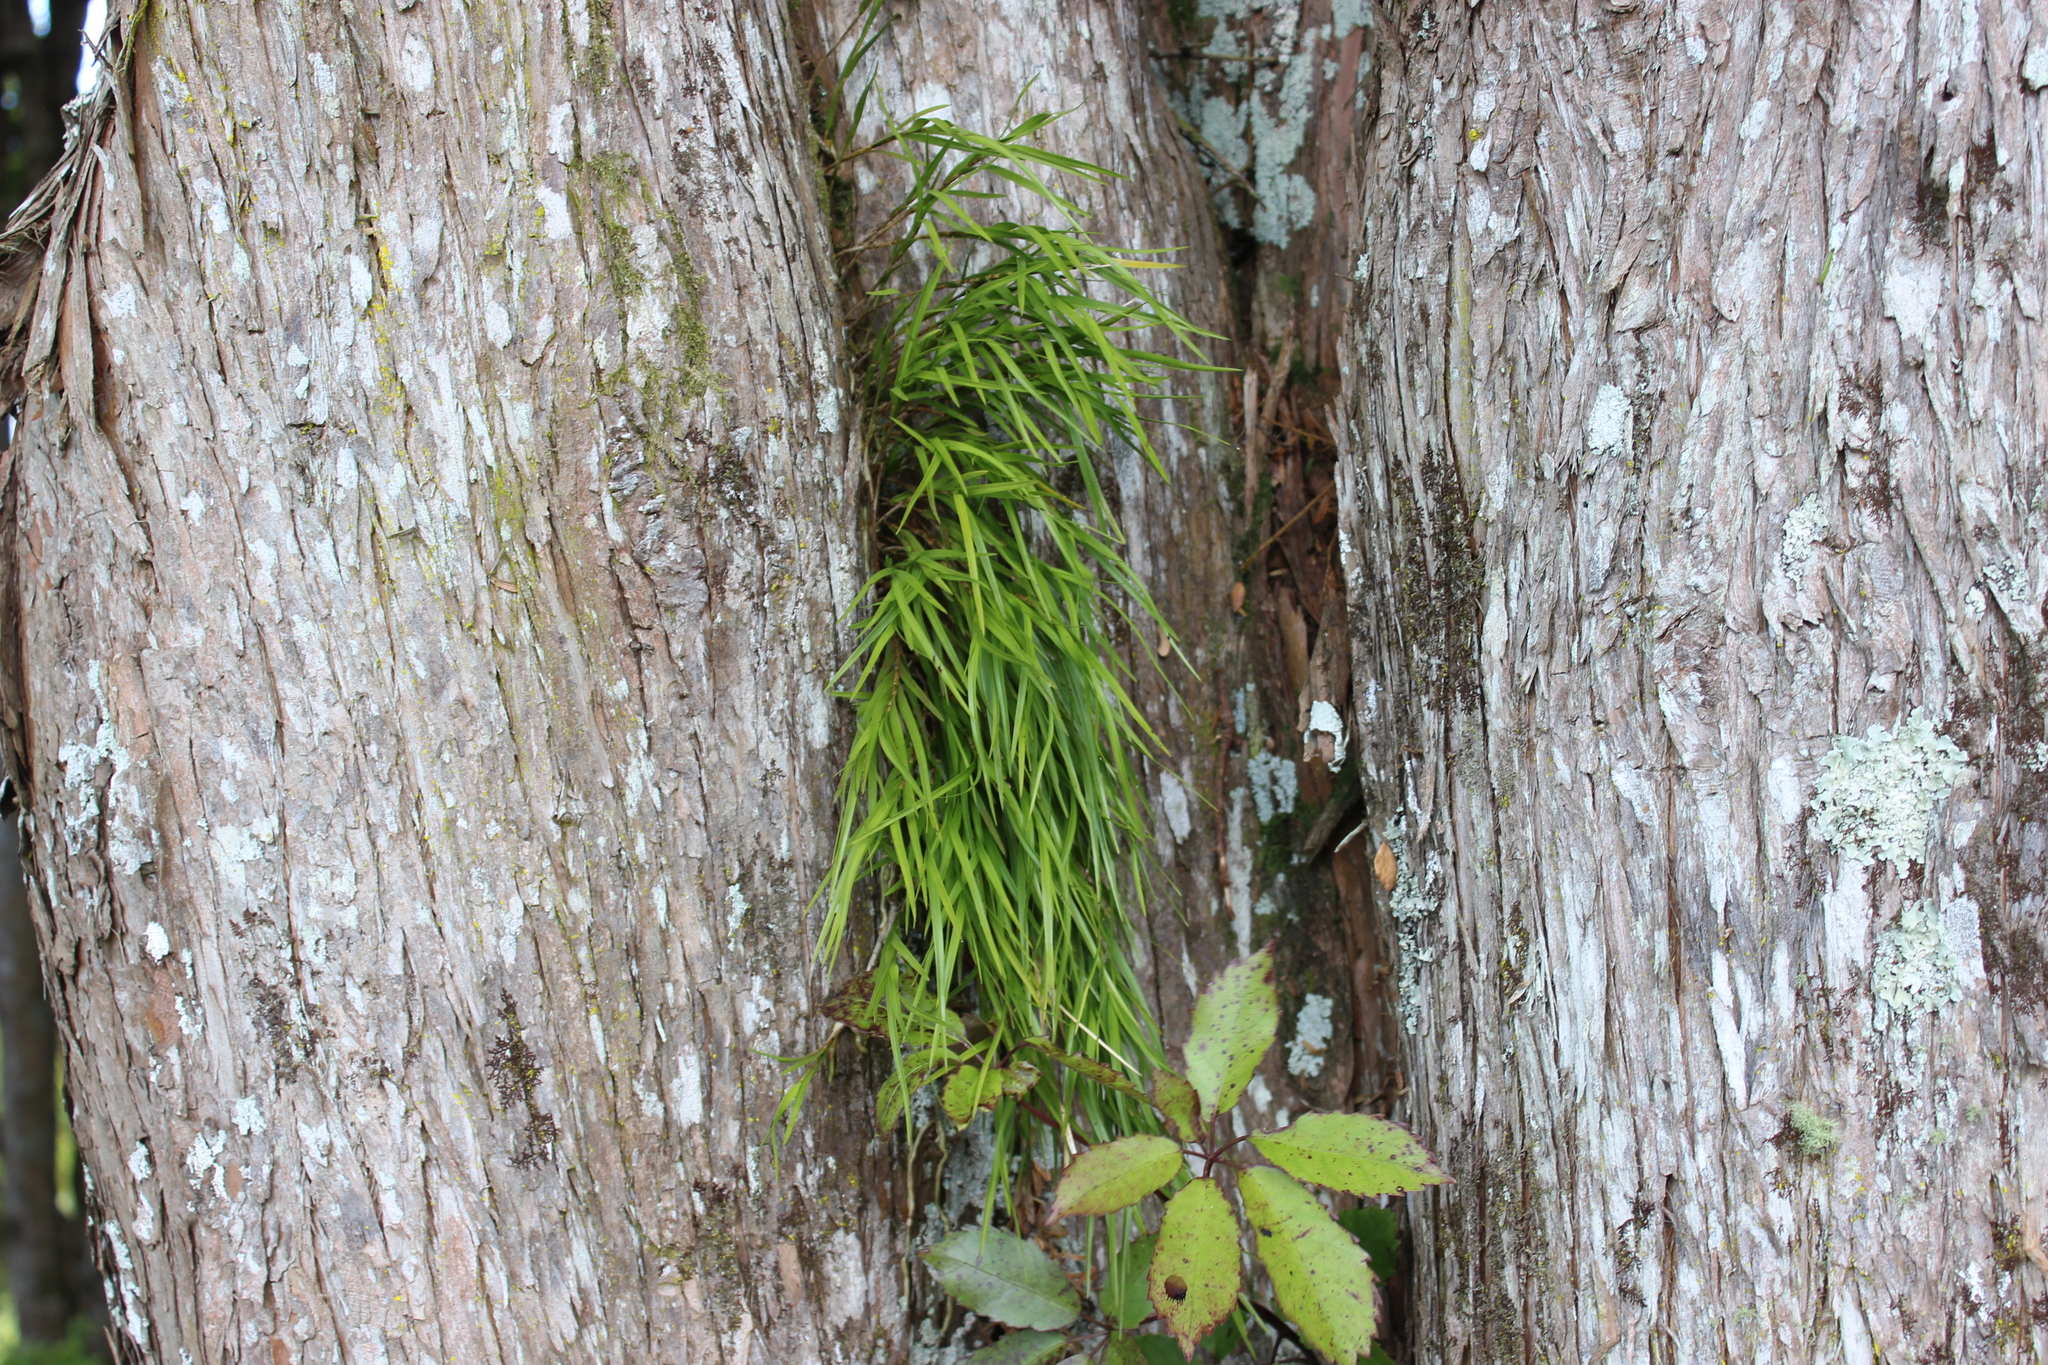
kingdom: Plantae
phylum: Tracheophyta
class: Liliopsida
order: Asparagales
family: Orchidaceae
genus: Earina
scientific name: Earina mucronata
